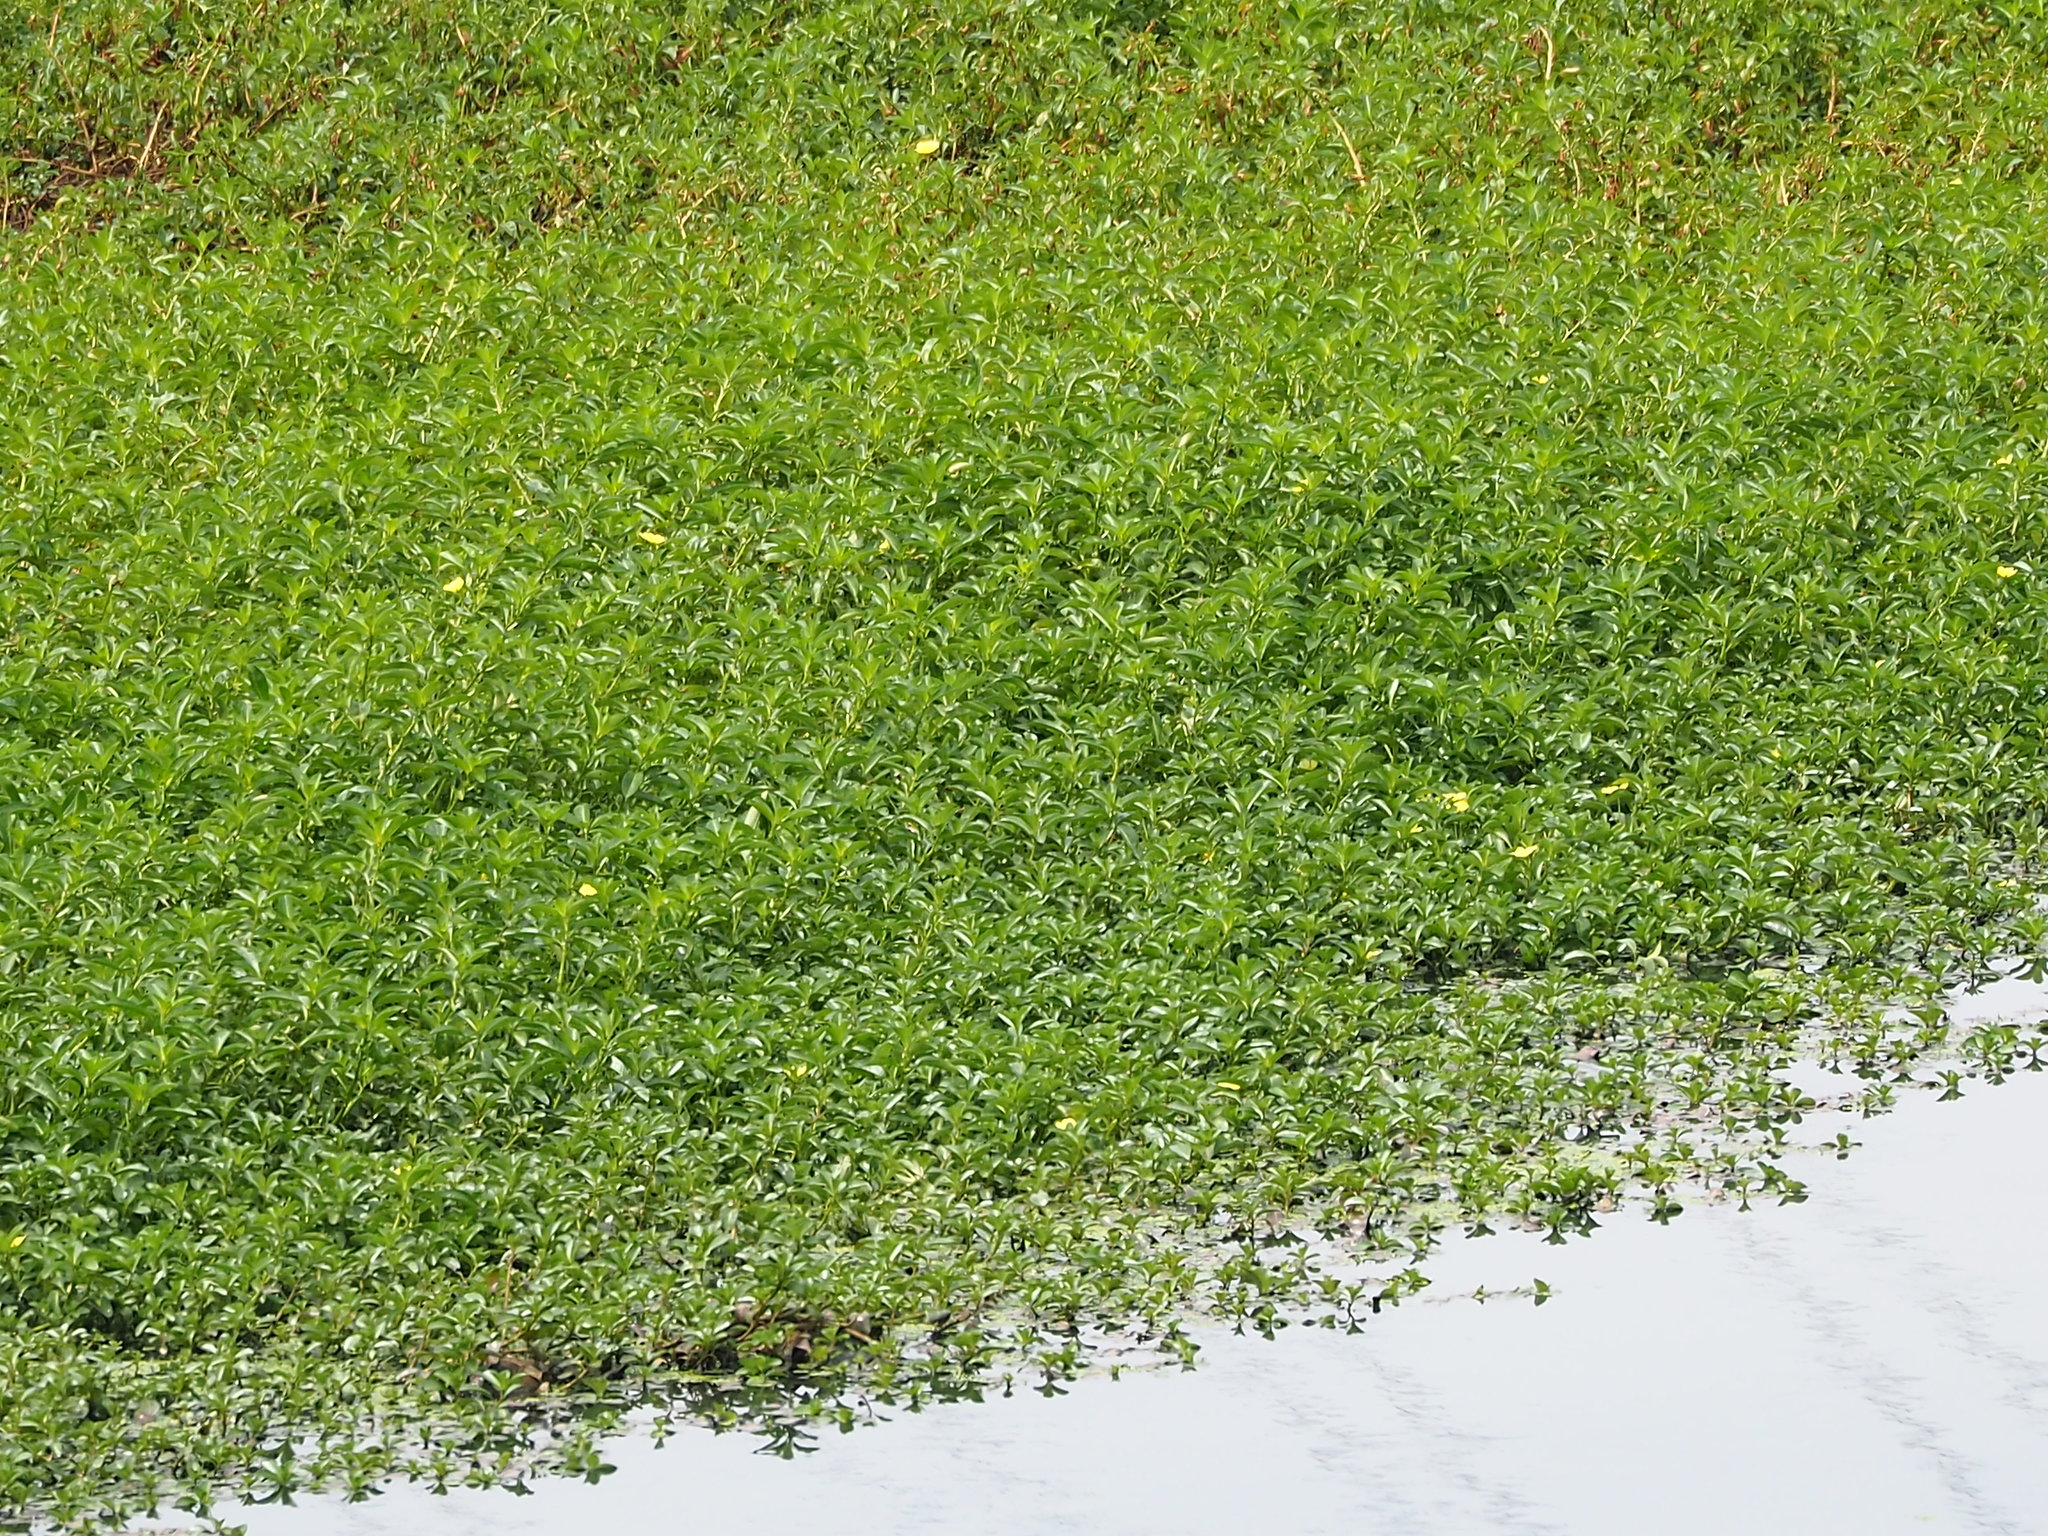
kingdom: Plantae
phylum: Tracheophyta
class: Magnoliopsida
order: Myrtales
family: Onagraceae
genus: Ludwigia
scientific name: Ludwigia taiwanensis
